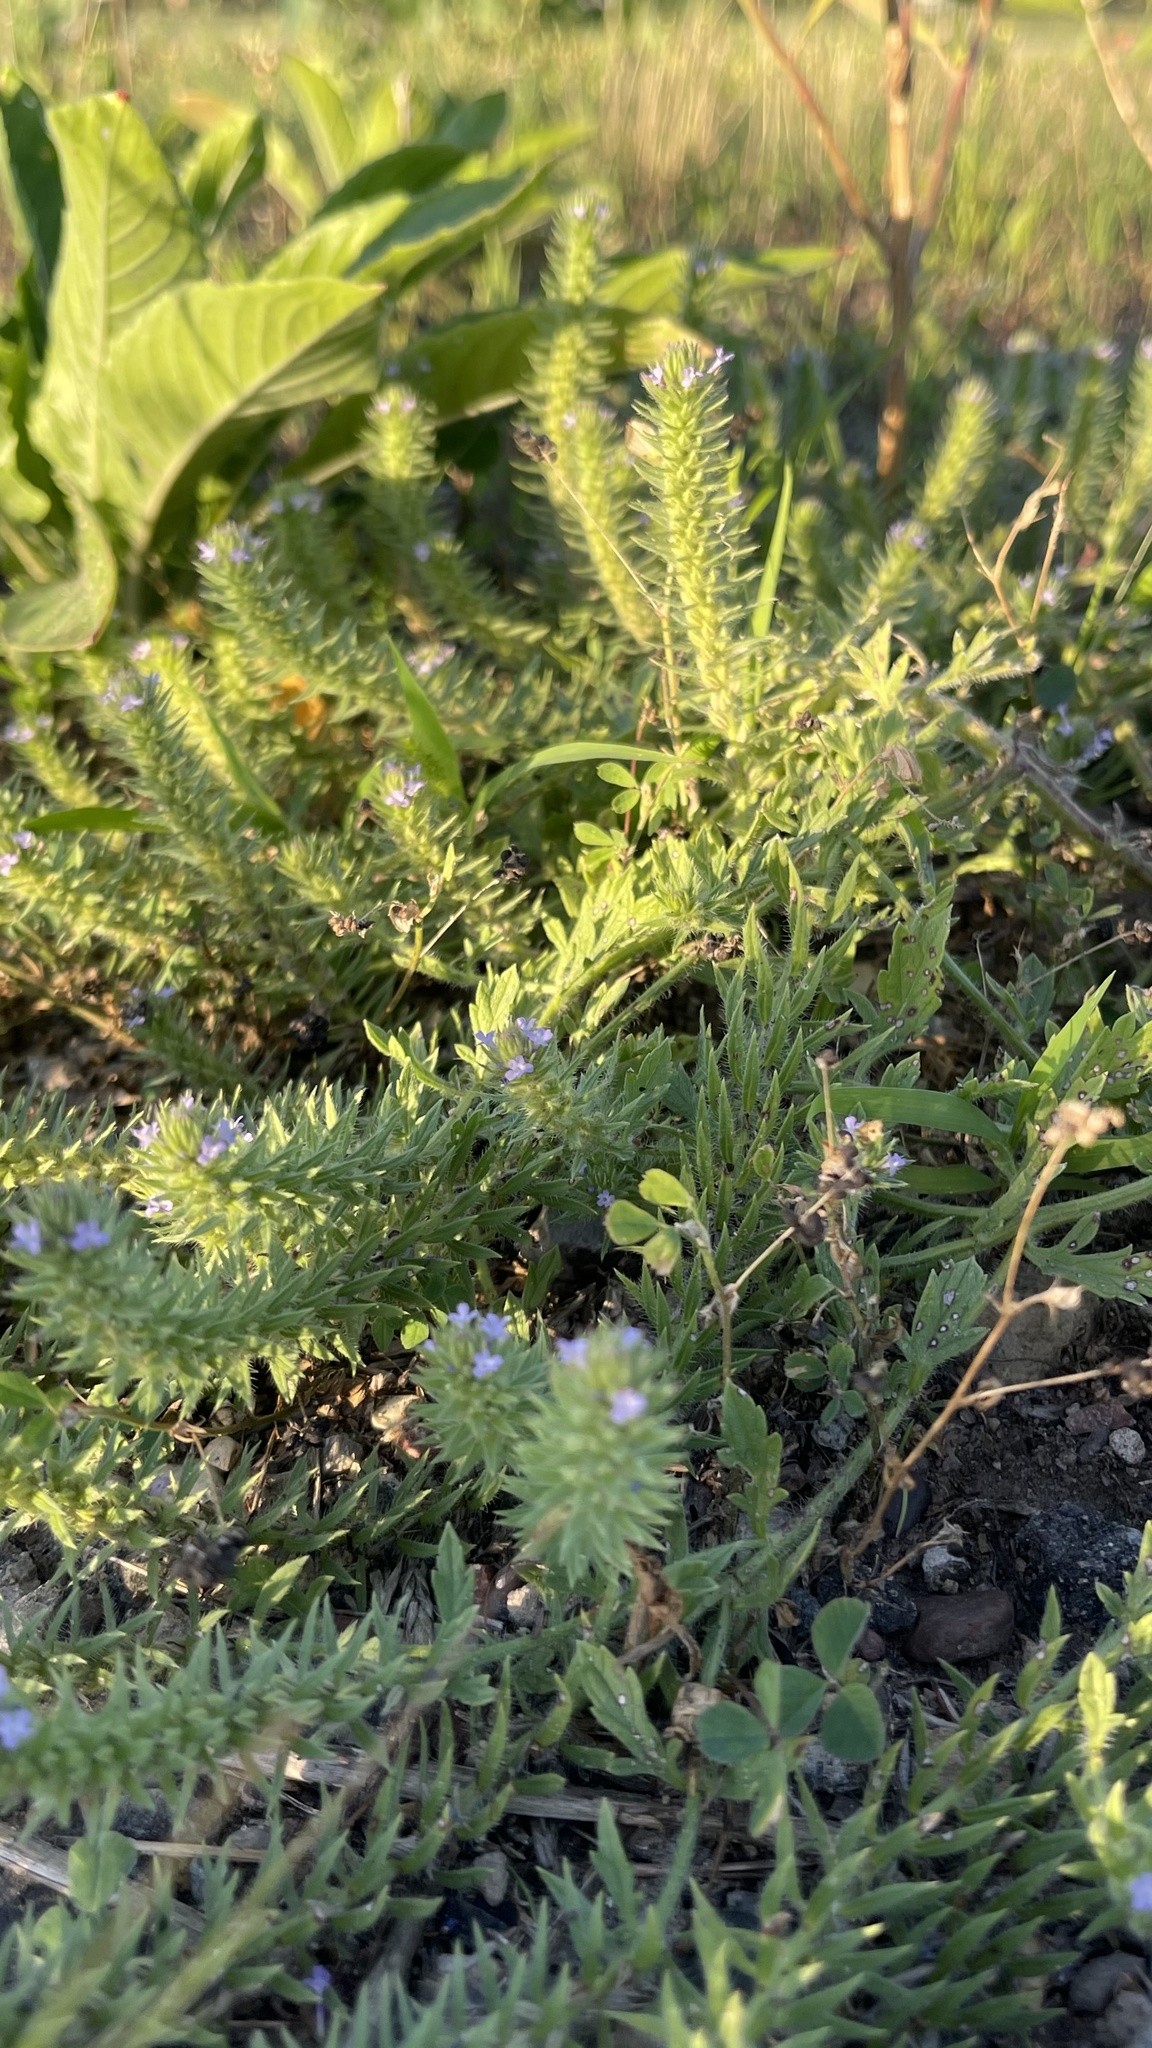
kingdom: Plantae
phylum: Tracheophyta
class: Magnoliopsida
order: Lamiales
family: Verbenaceae
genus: Verbena
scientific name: Verbena bracteata
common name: Bracted vervain
